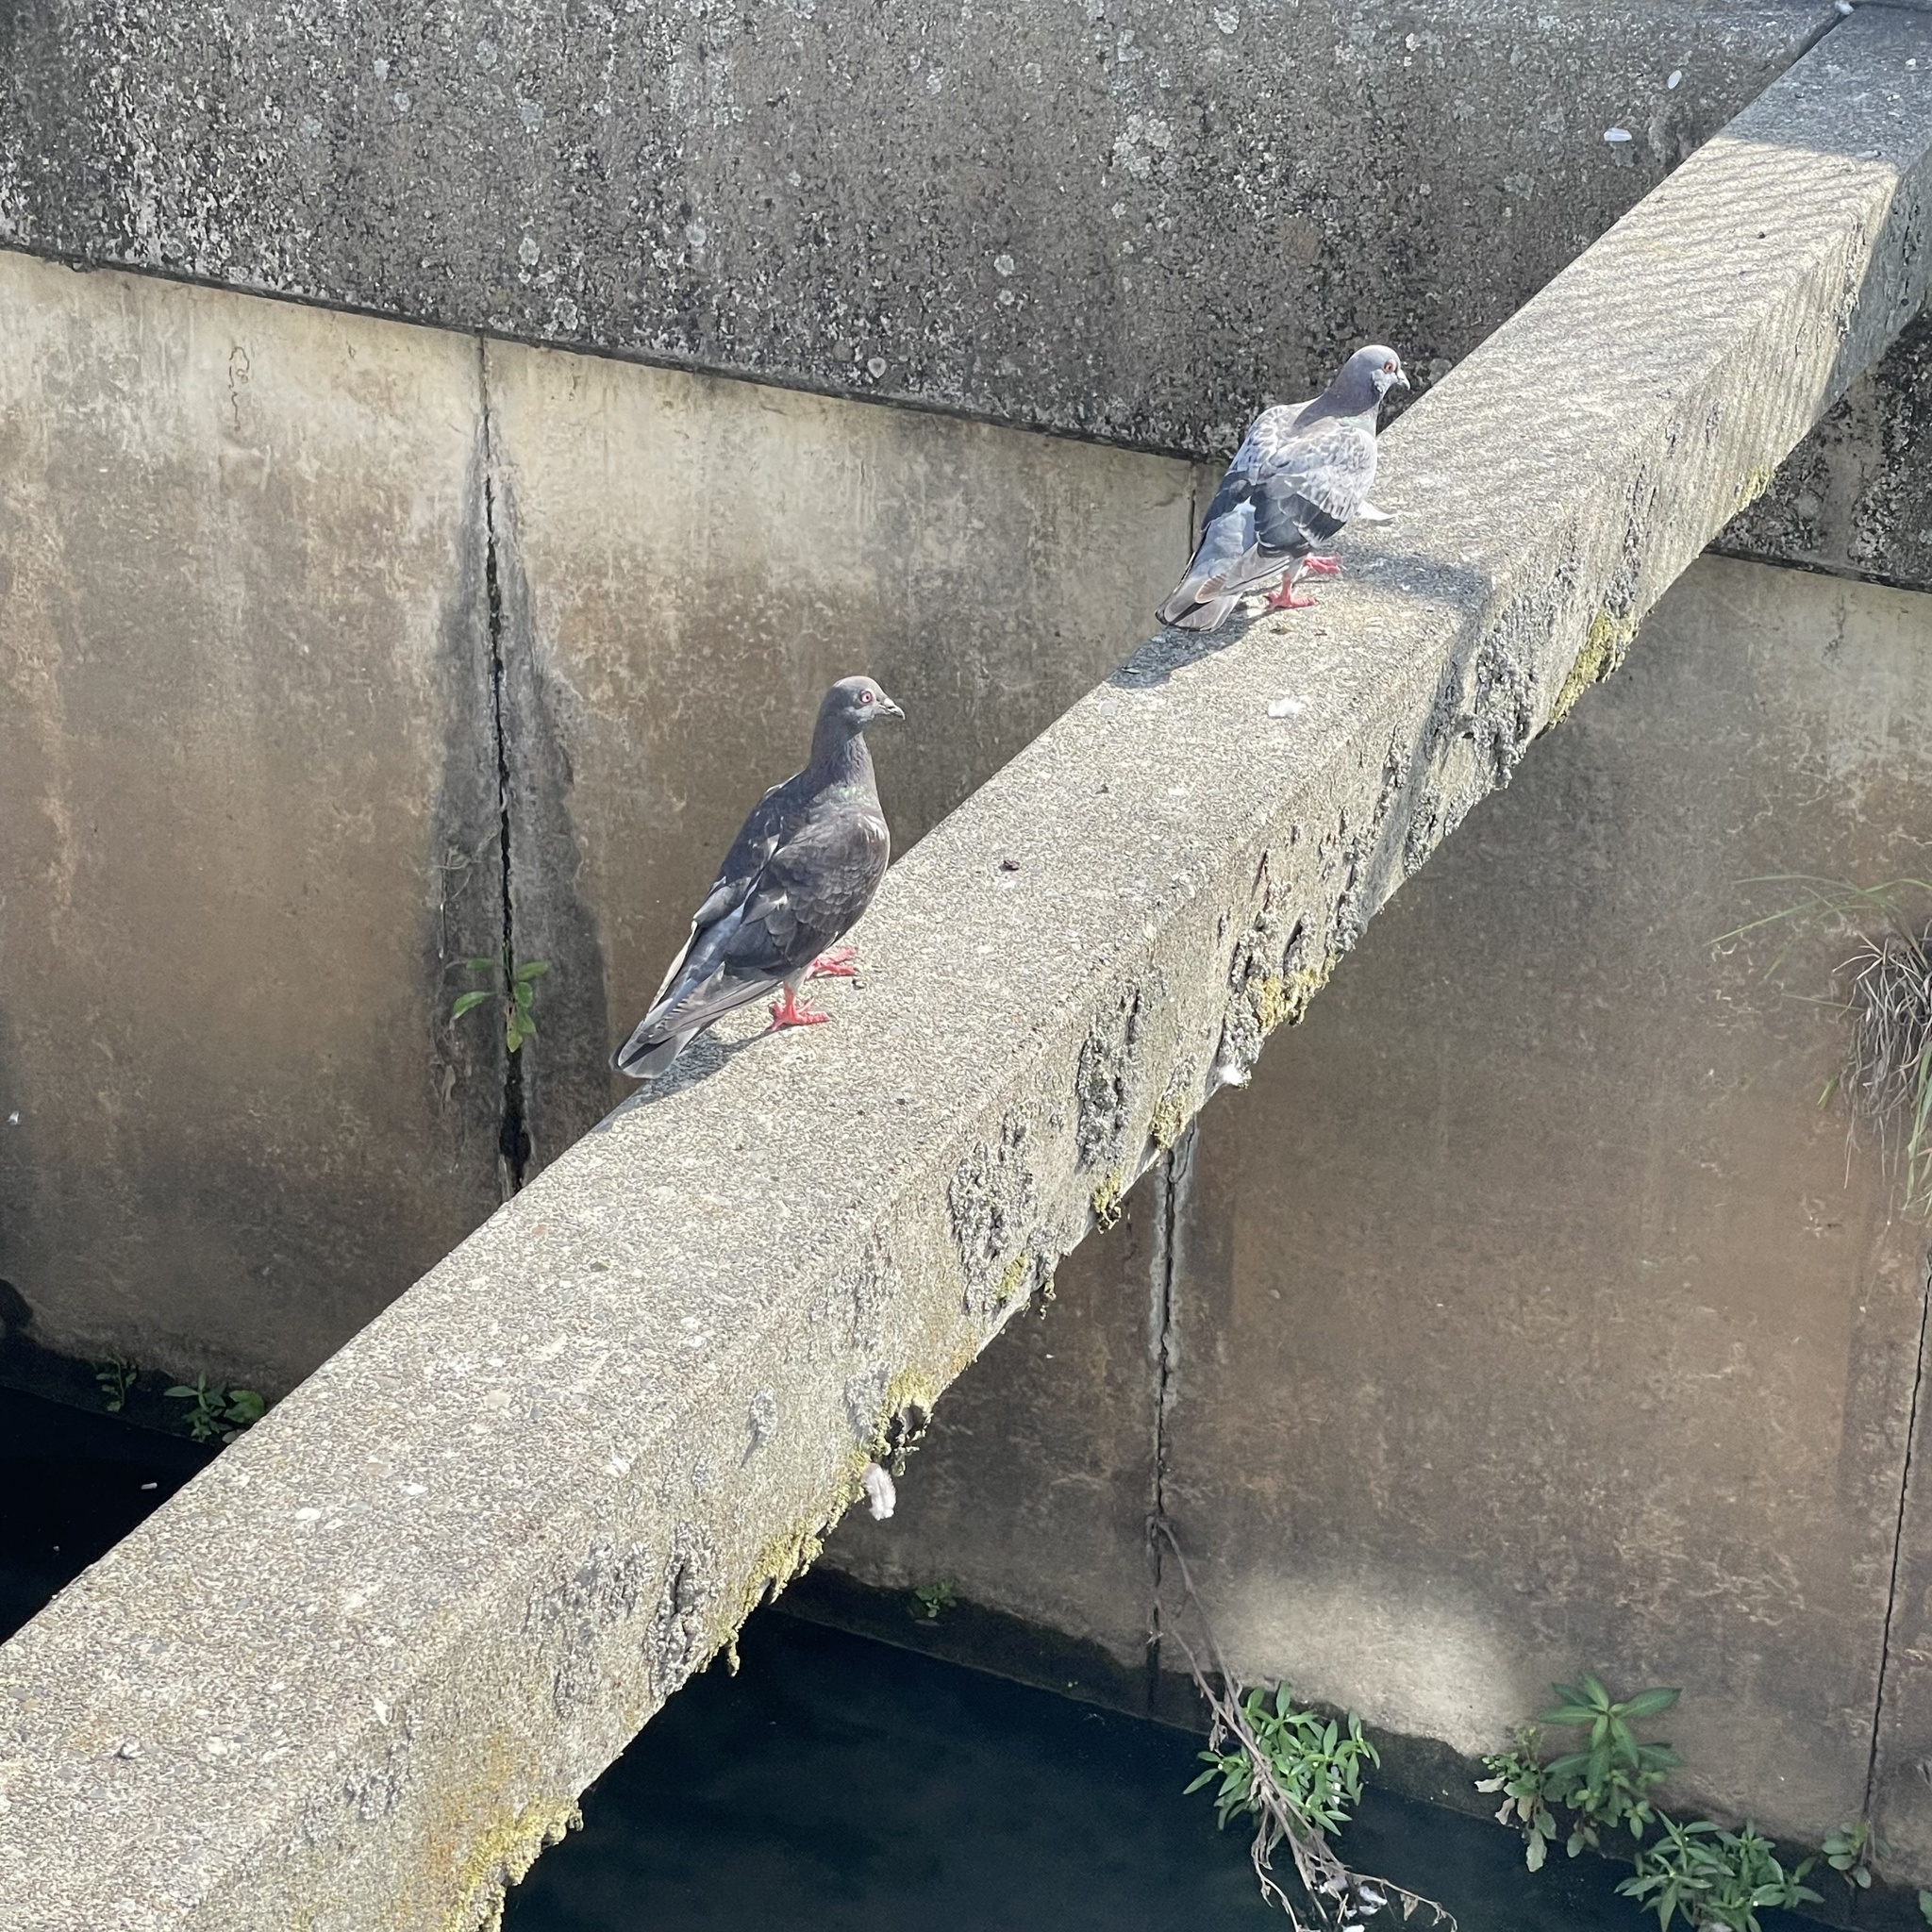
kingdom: Animalia
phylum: Chordata
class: Aves
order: Columbiformes
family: Columbidae
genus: Columba
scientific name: Columba livia
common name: Rock pigeon
